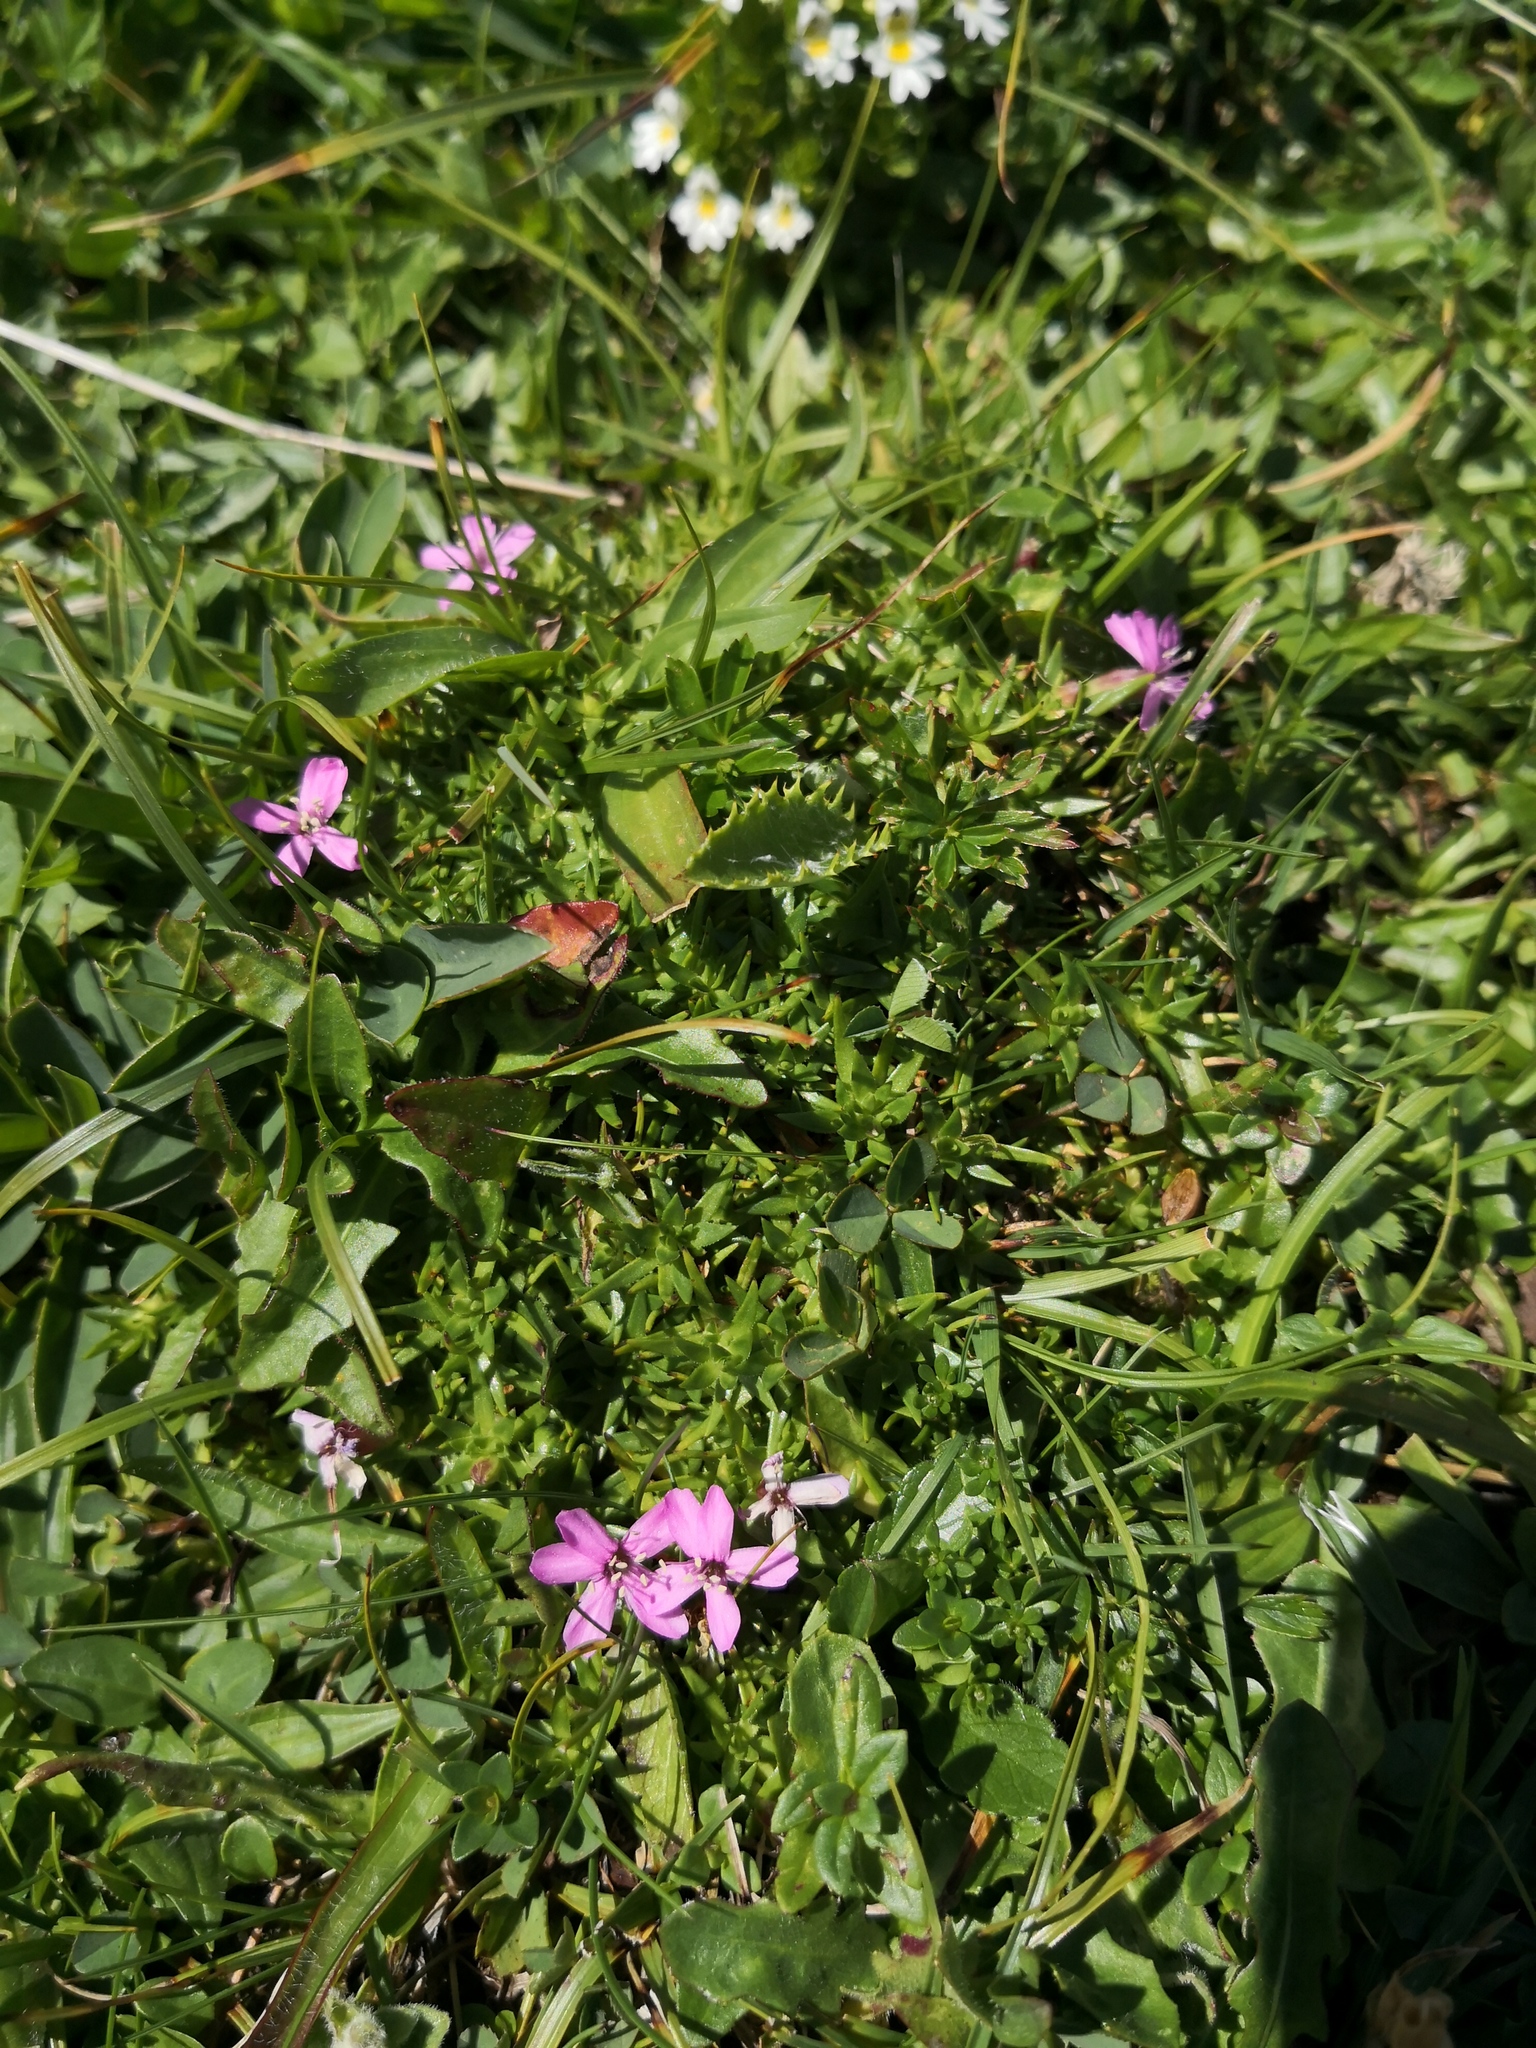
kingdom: Plantae
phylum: Tracheophyta
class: Magnoliopsida
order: Caryophyllales
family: Caryophyllaceae
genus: Silene
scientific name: Silene acaulis
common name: Moss campion
